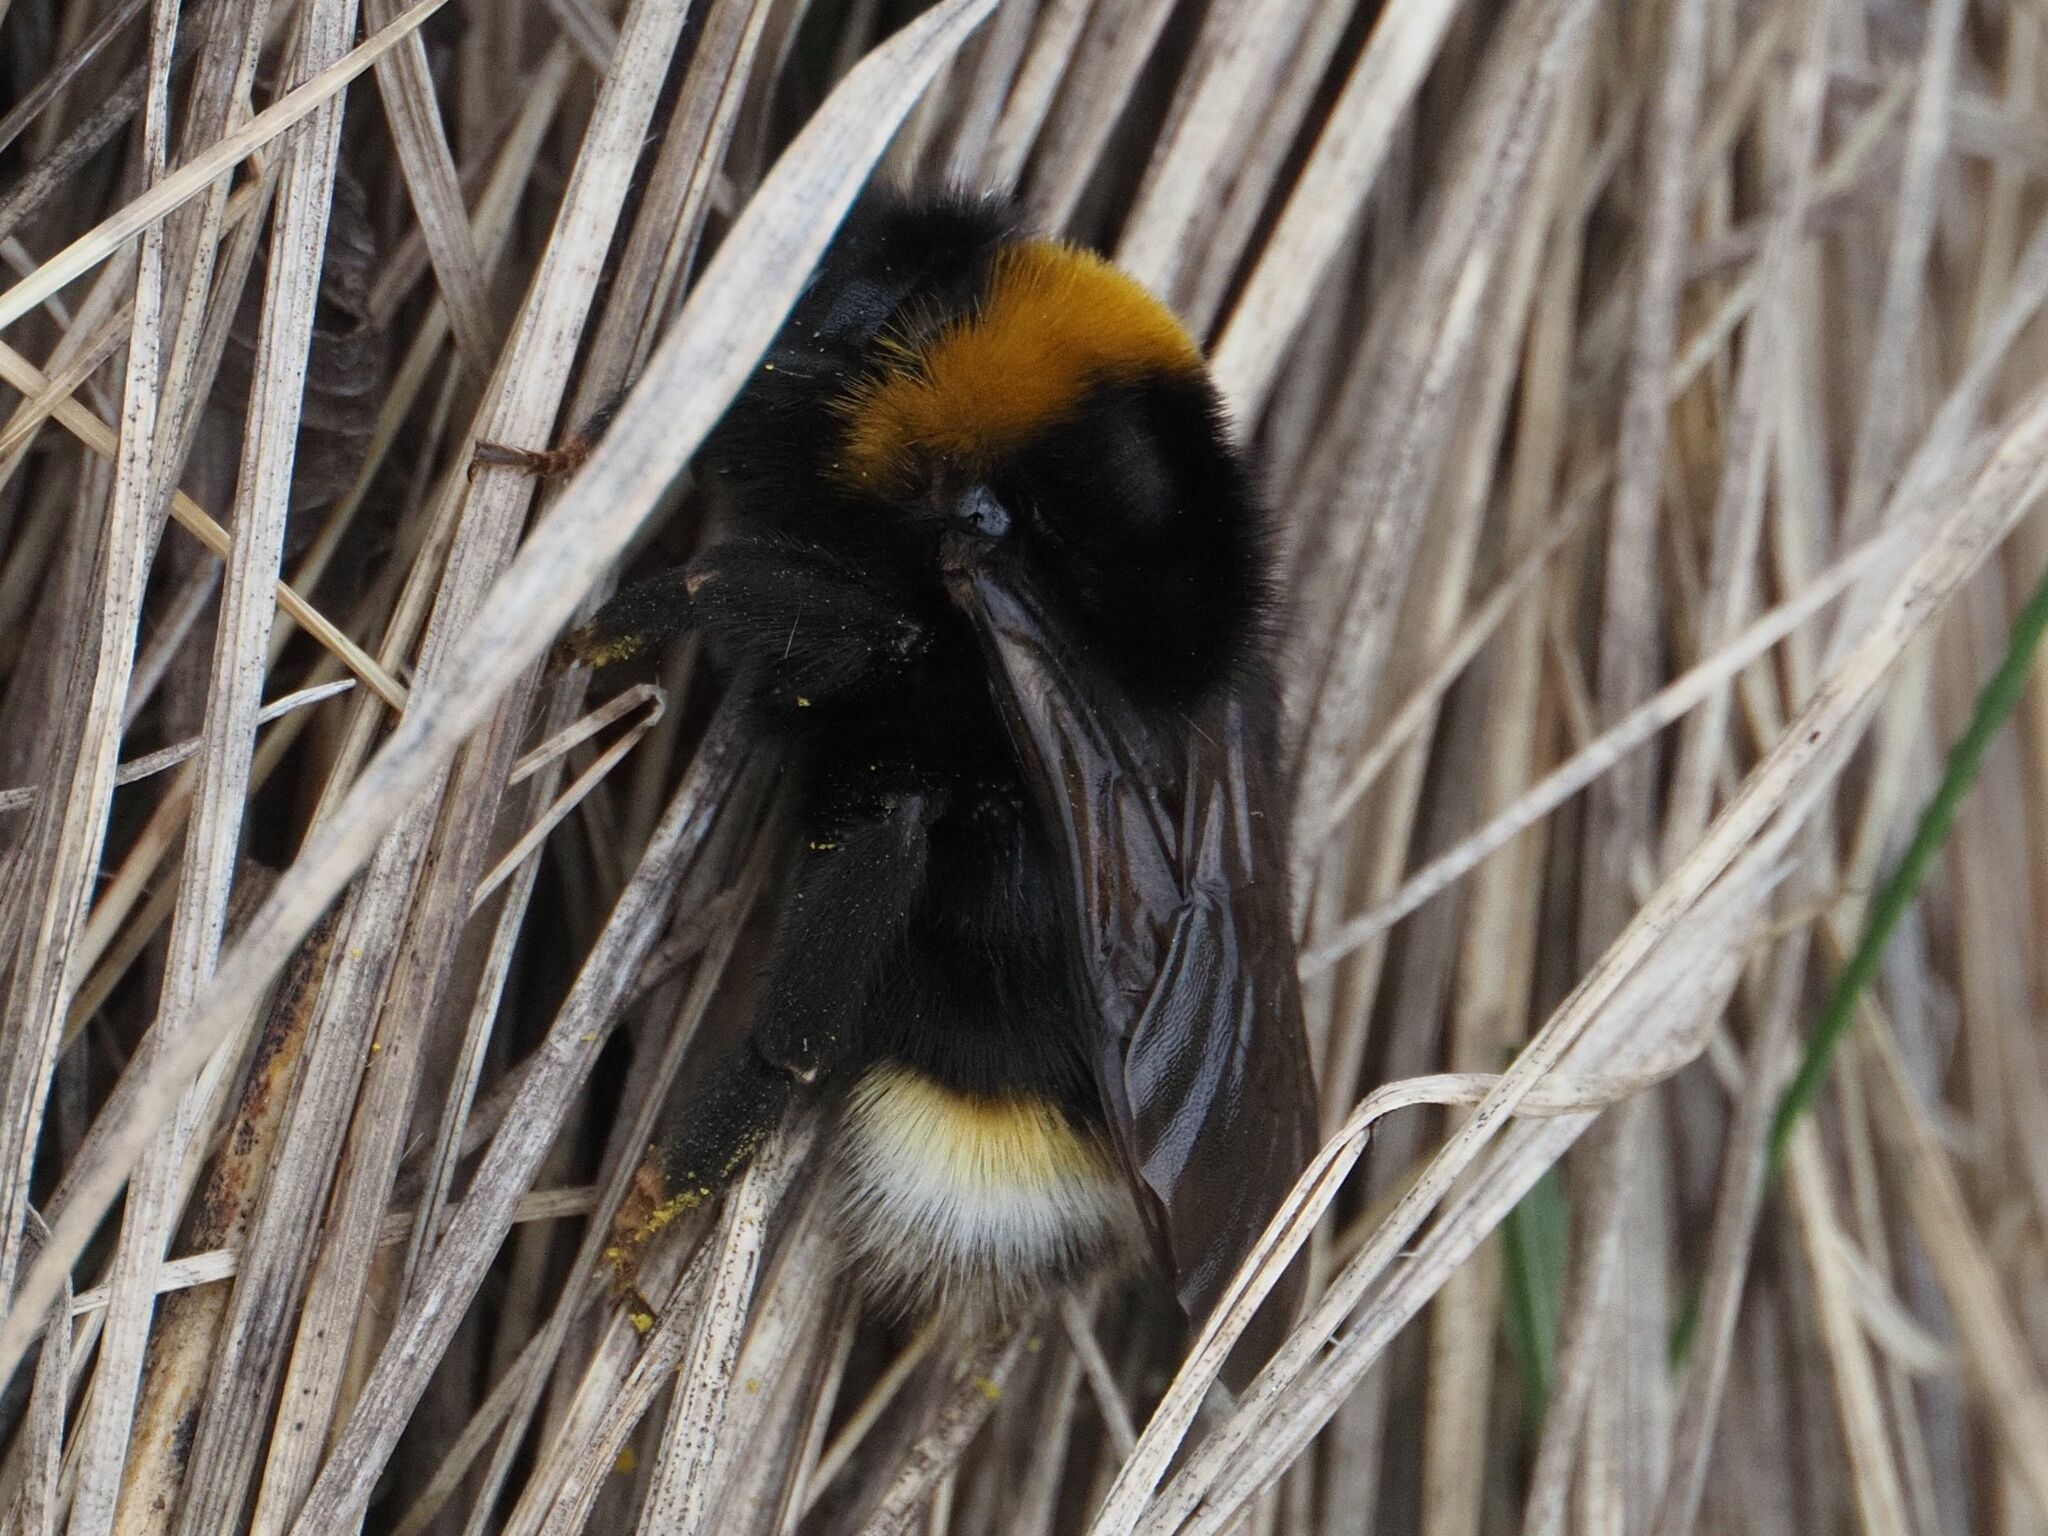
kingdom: Animalia
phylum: Arthropoda
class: Insecta
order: Hymenoptera
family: Apidae
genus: Bombus
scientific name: Bombus vestalis
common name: Vestal cuckoo bee
